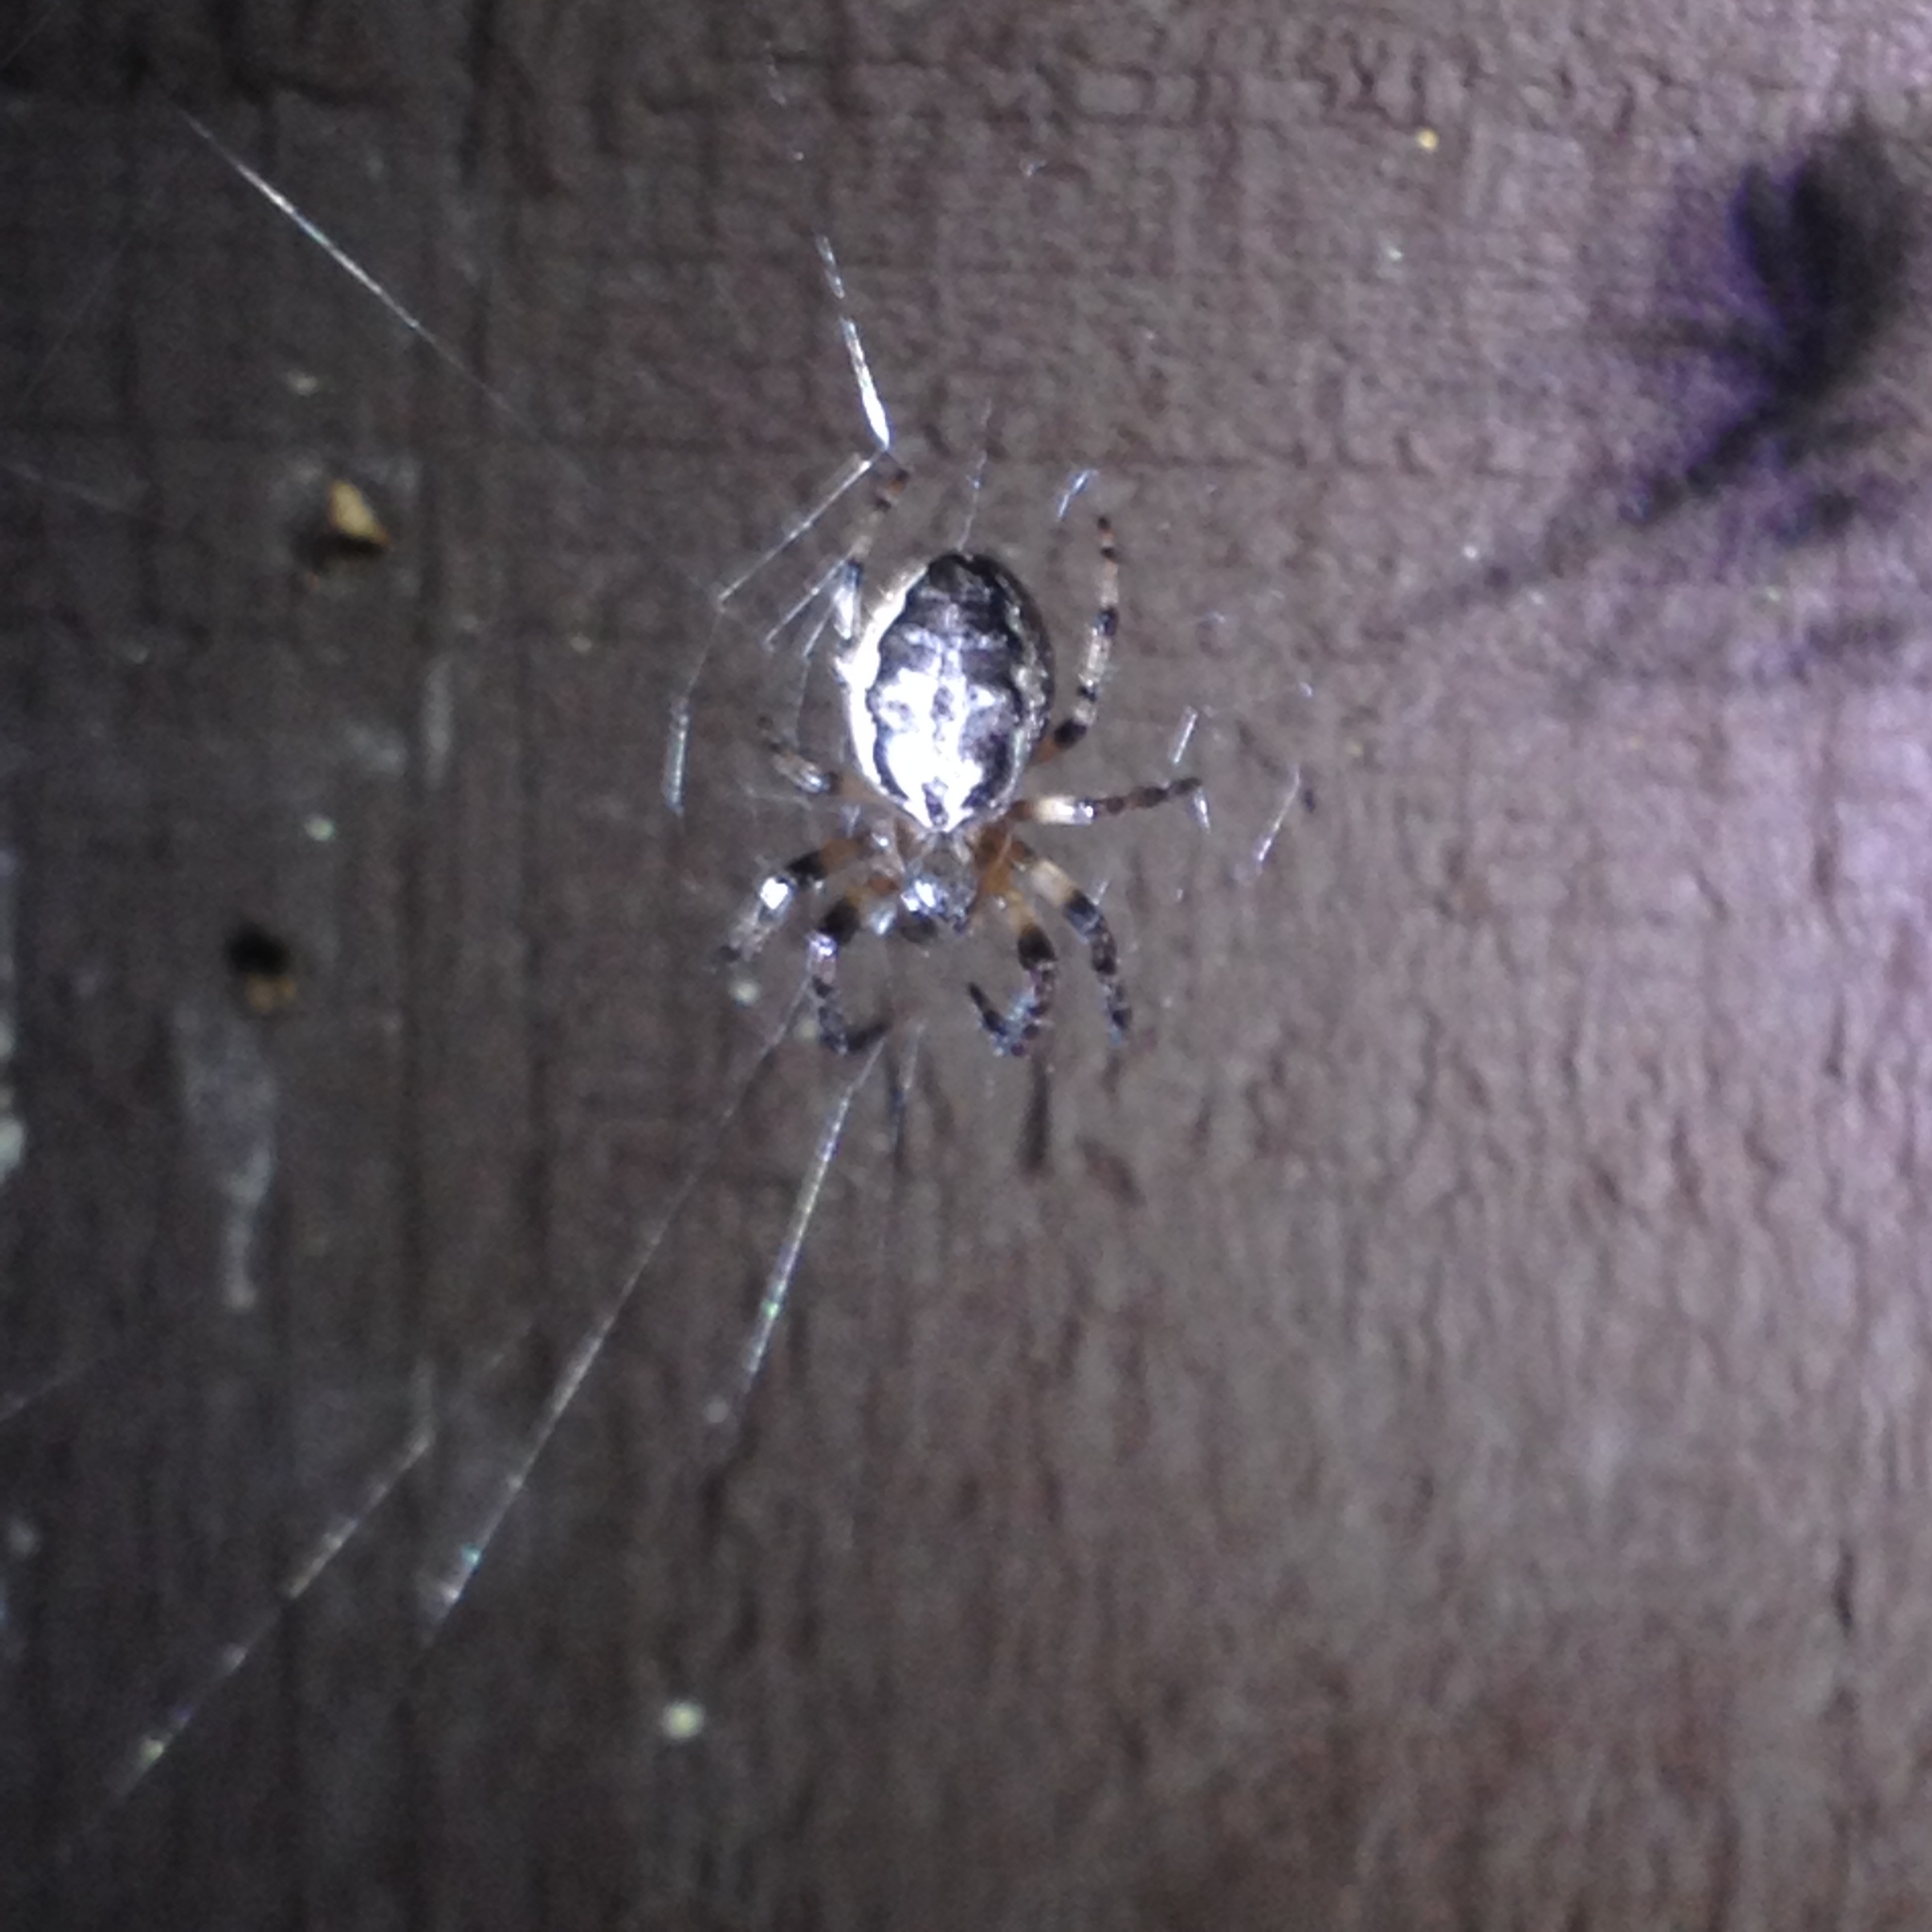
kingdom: Animalia
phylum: Arthropoda
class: Arachnida
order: Araneae
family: Araneidae
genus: Larinioides
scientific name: Larinioides cornutus
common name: Furrow orbweaver
